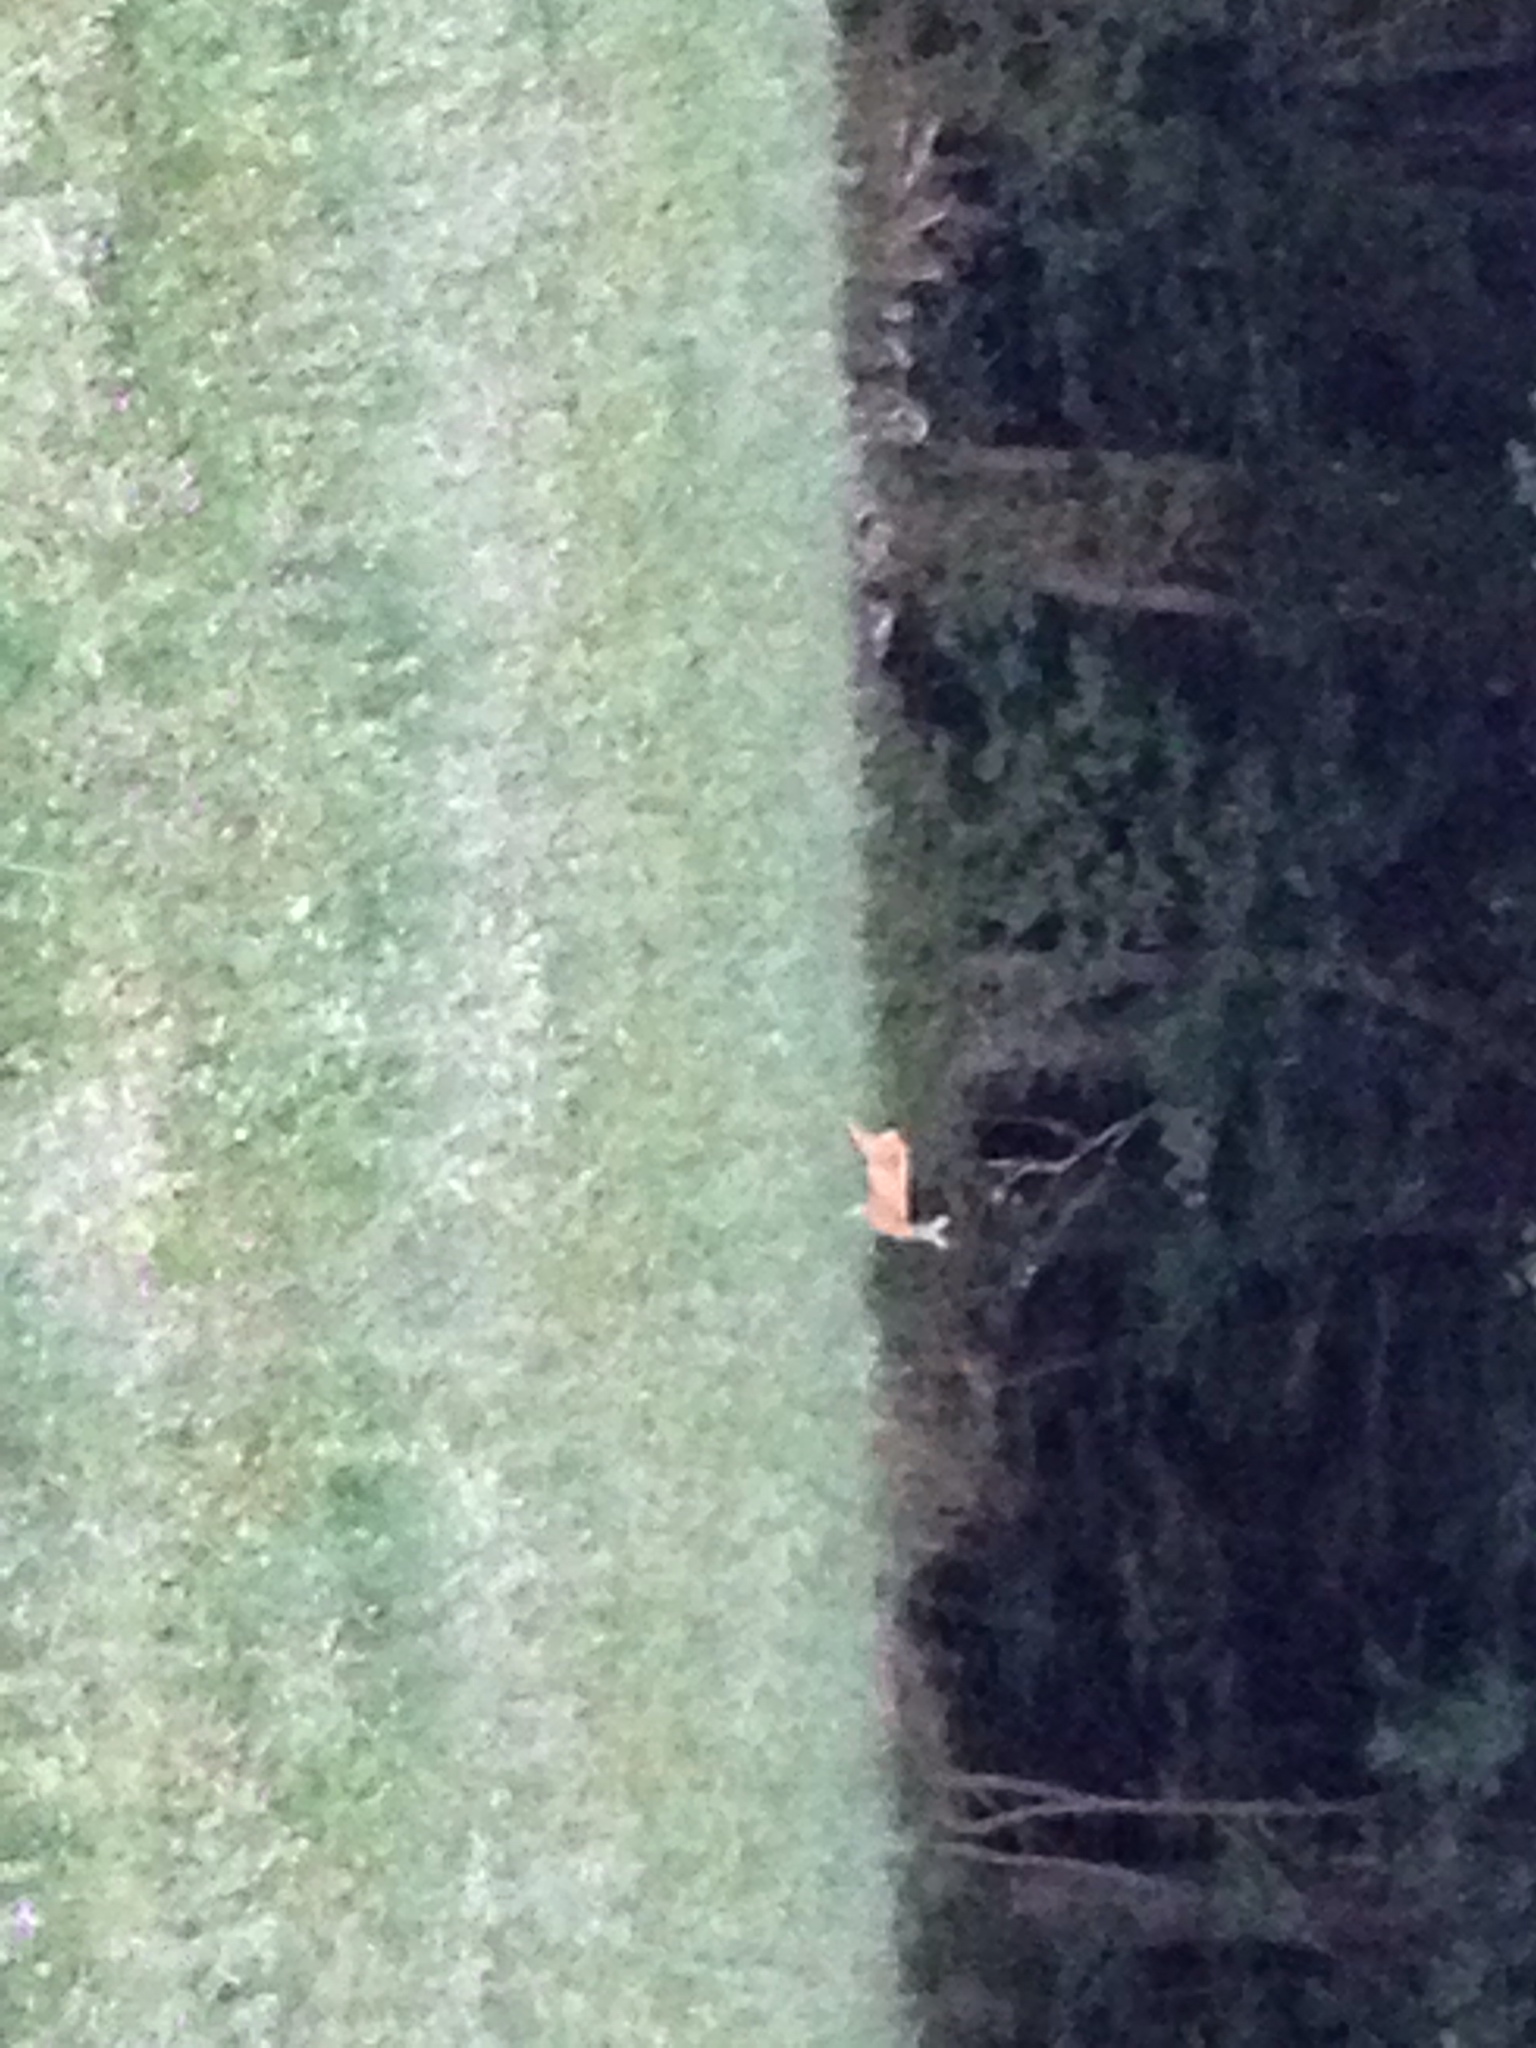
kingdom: Animalia
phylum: Chordata
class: Mammalia
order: Artiodactyla
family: Cervidae
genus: Capreolus
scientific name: Capreolus capreolus
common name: Western roe deer
